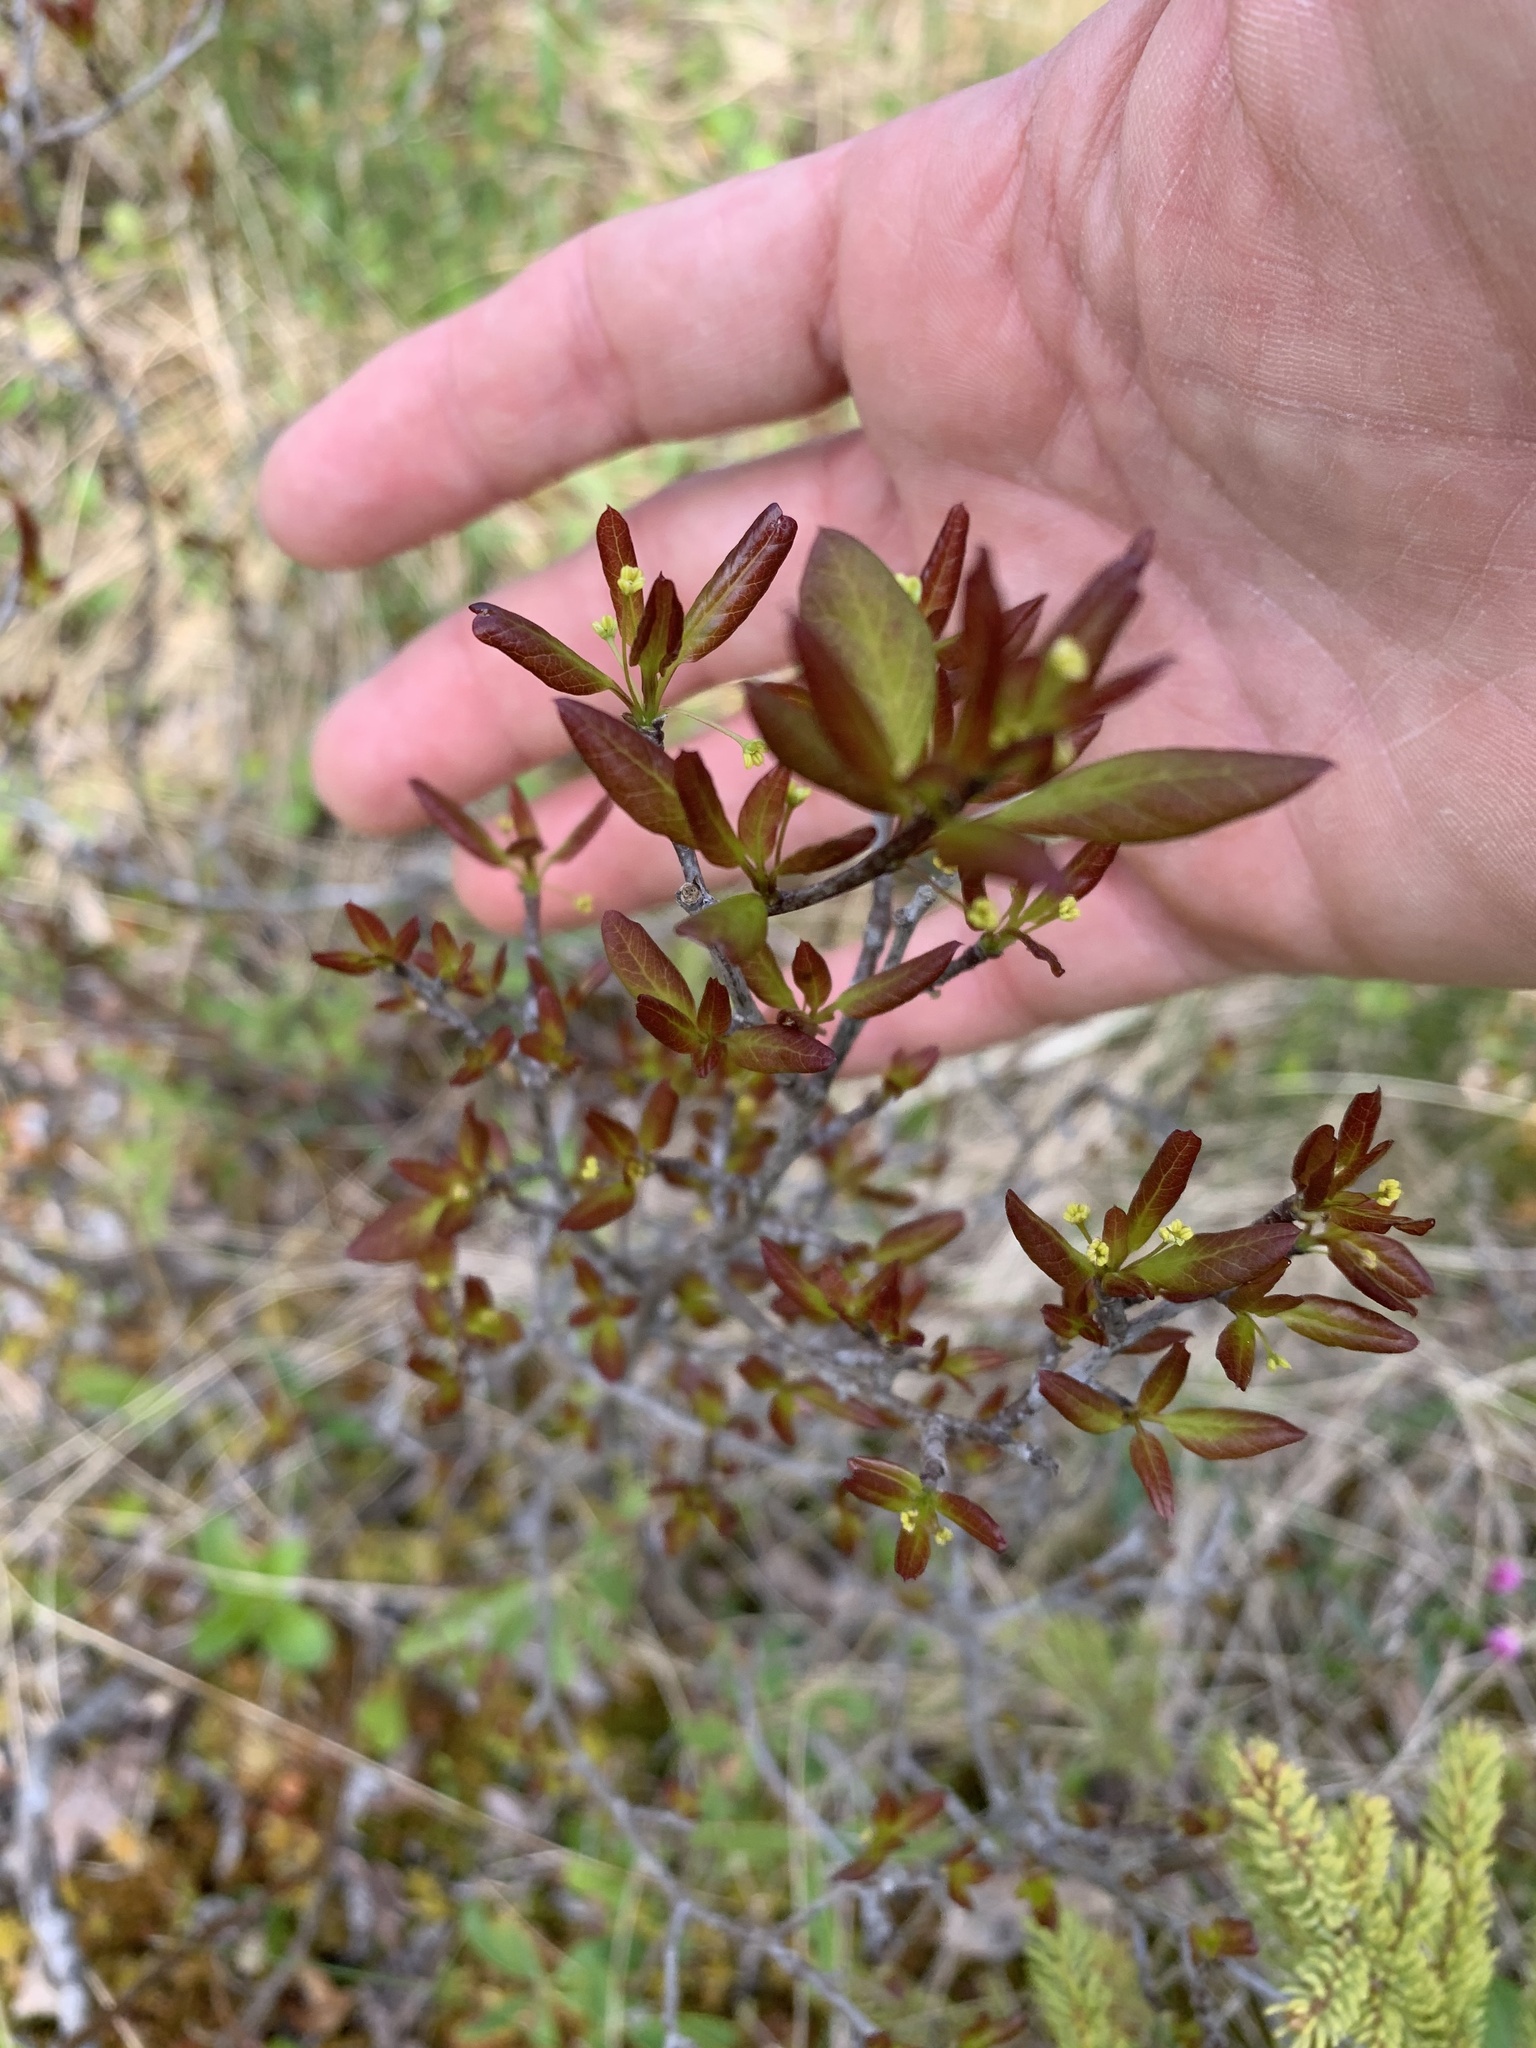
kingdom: Plantae
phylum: Tracheophyta
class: Magnoliopsida
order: Aquifoliales
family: Aquifoliaceae
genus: Ilex
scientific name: Ilex mucronata
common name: Catberry
